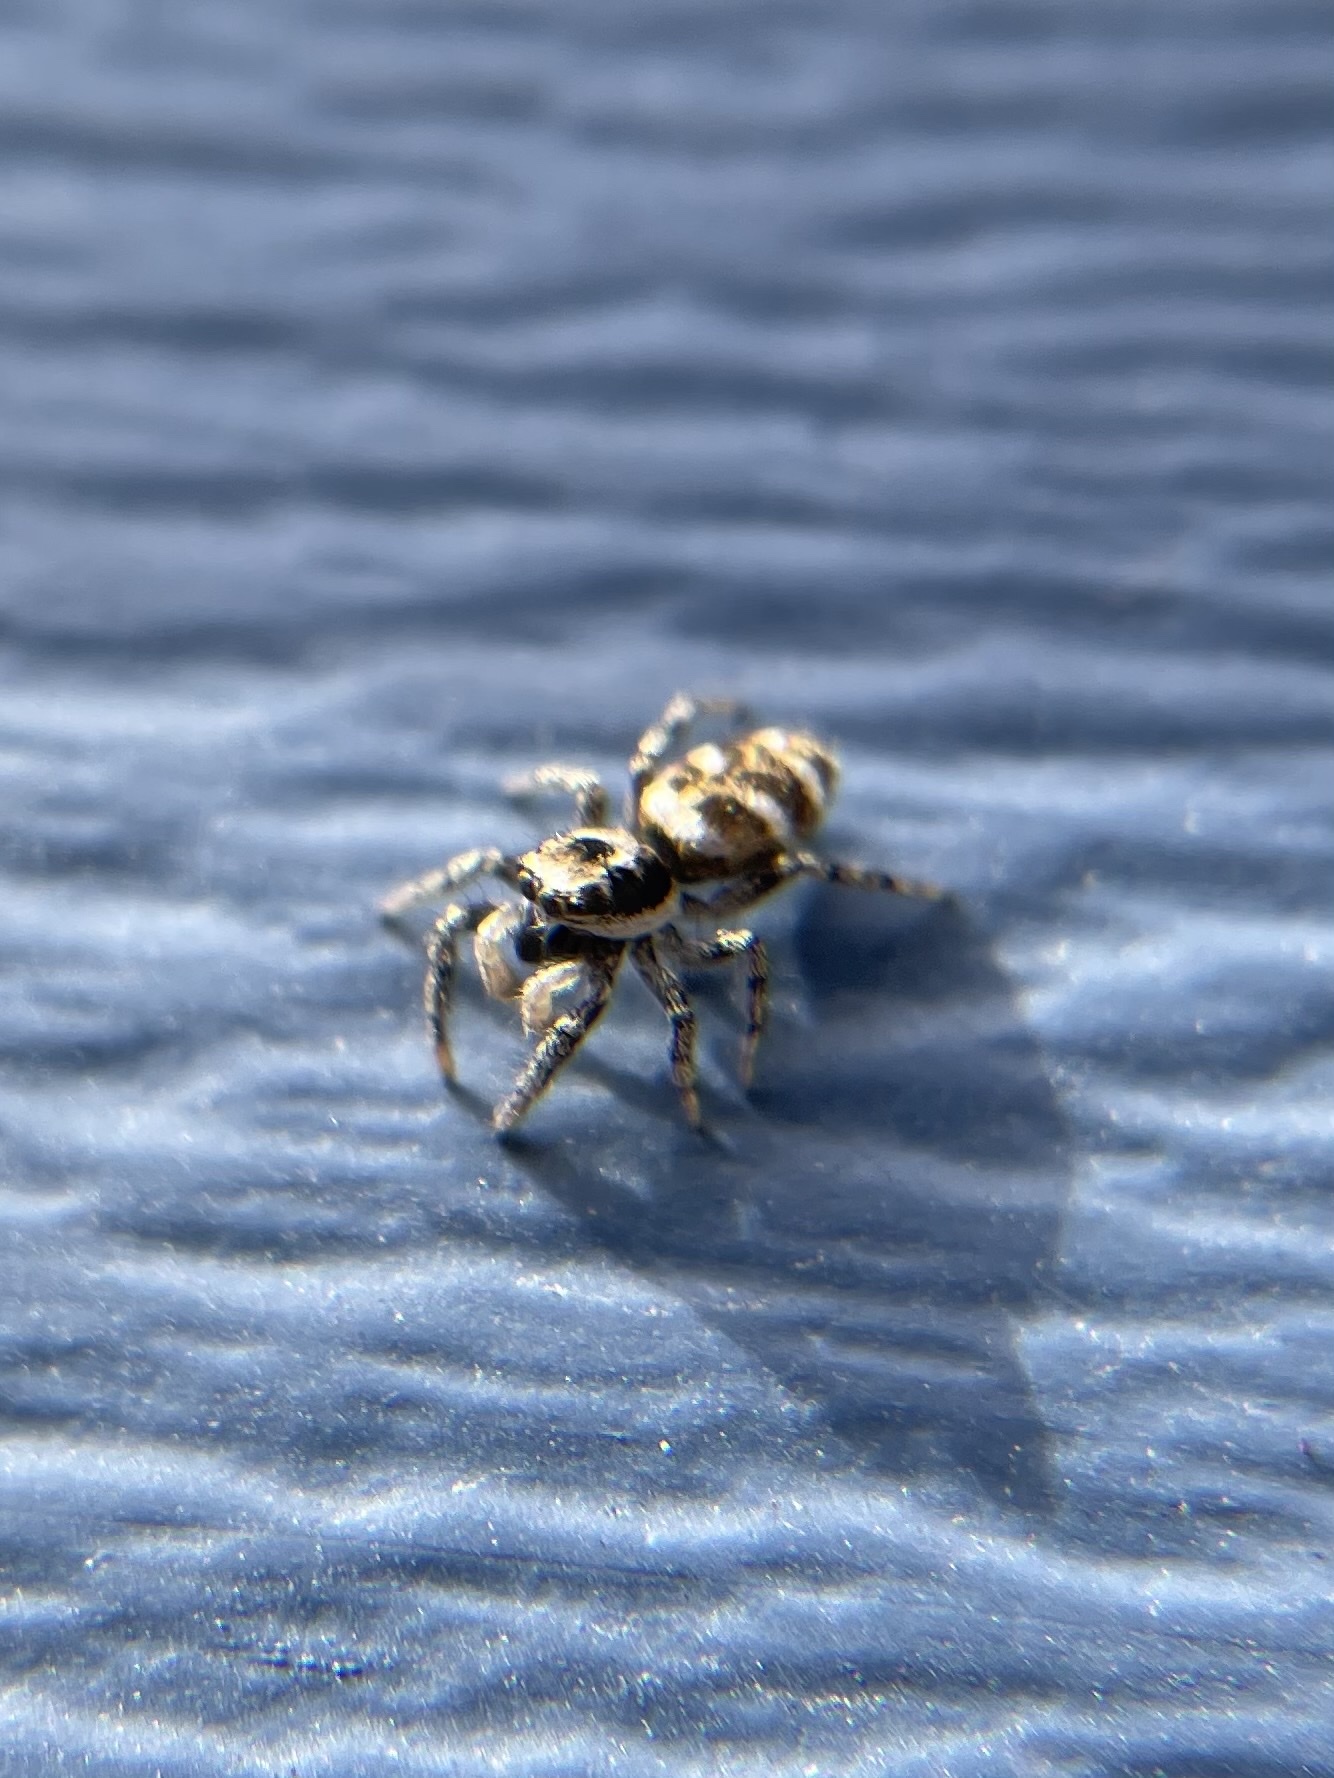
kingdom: Animalia
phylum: Arthropoda
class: Arachnida
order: Araneae
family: Salticidae
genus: Salticus
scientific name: Salticus scenicus
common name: Zebra jumper
